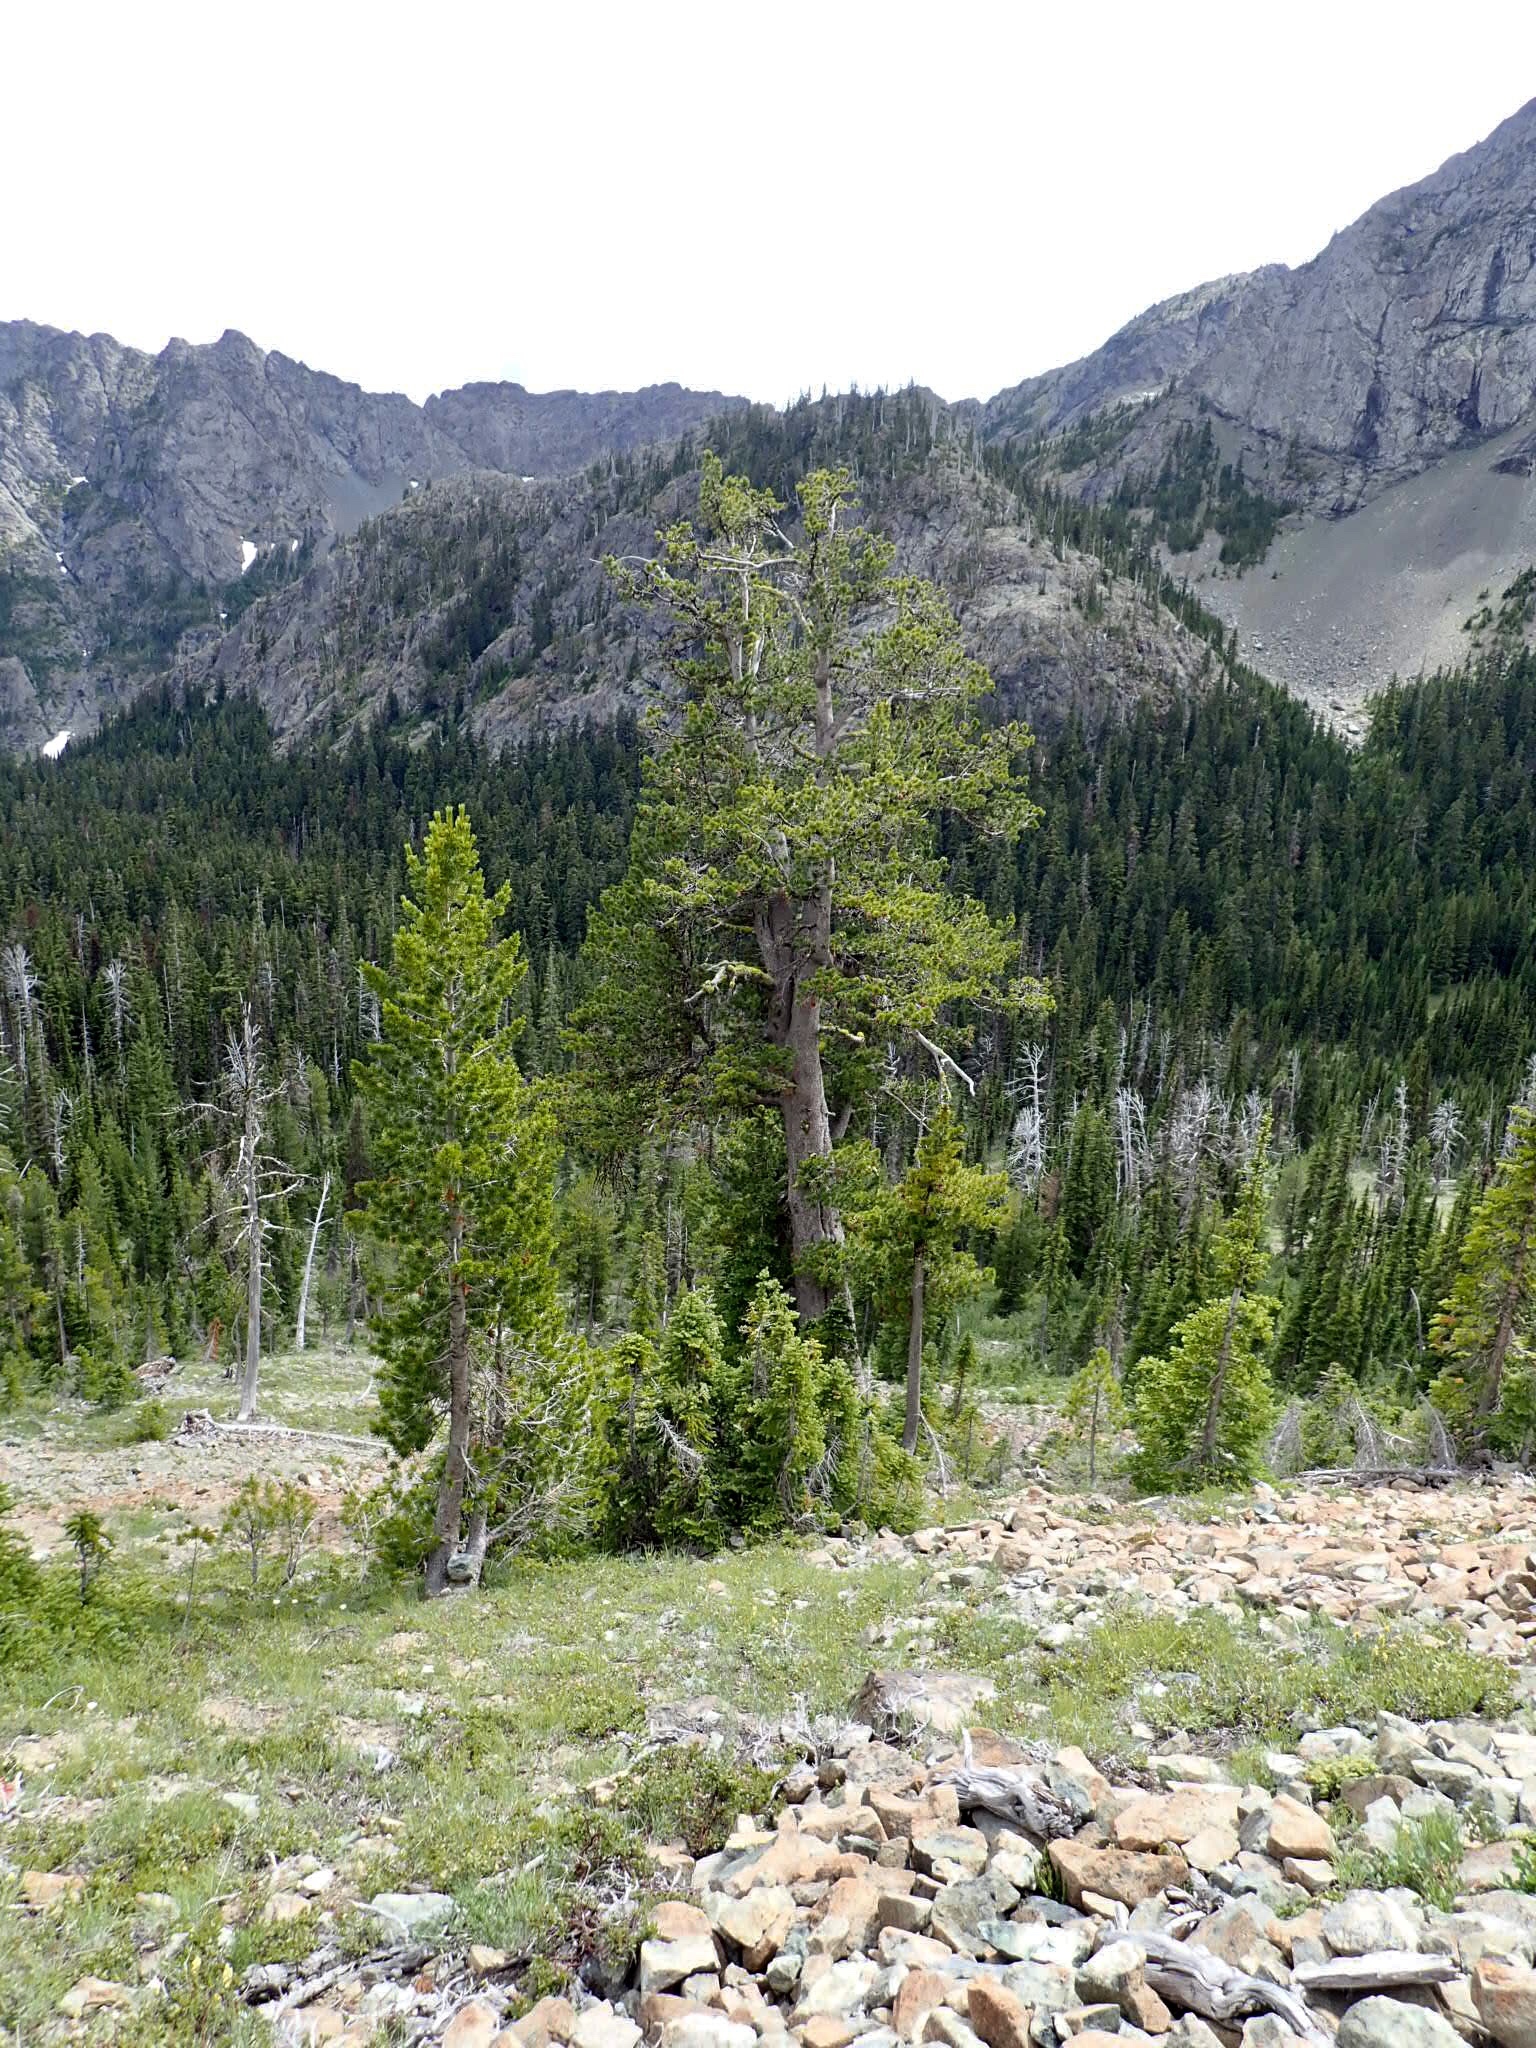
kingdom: Plantae
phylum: Tracheophyta
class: Pinopsida
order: Pinales
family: Pinaceae
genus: Pinus
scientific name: Pinus albicaulis
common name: Whitebark pine
